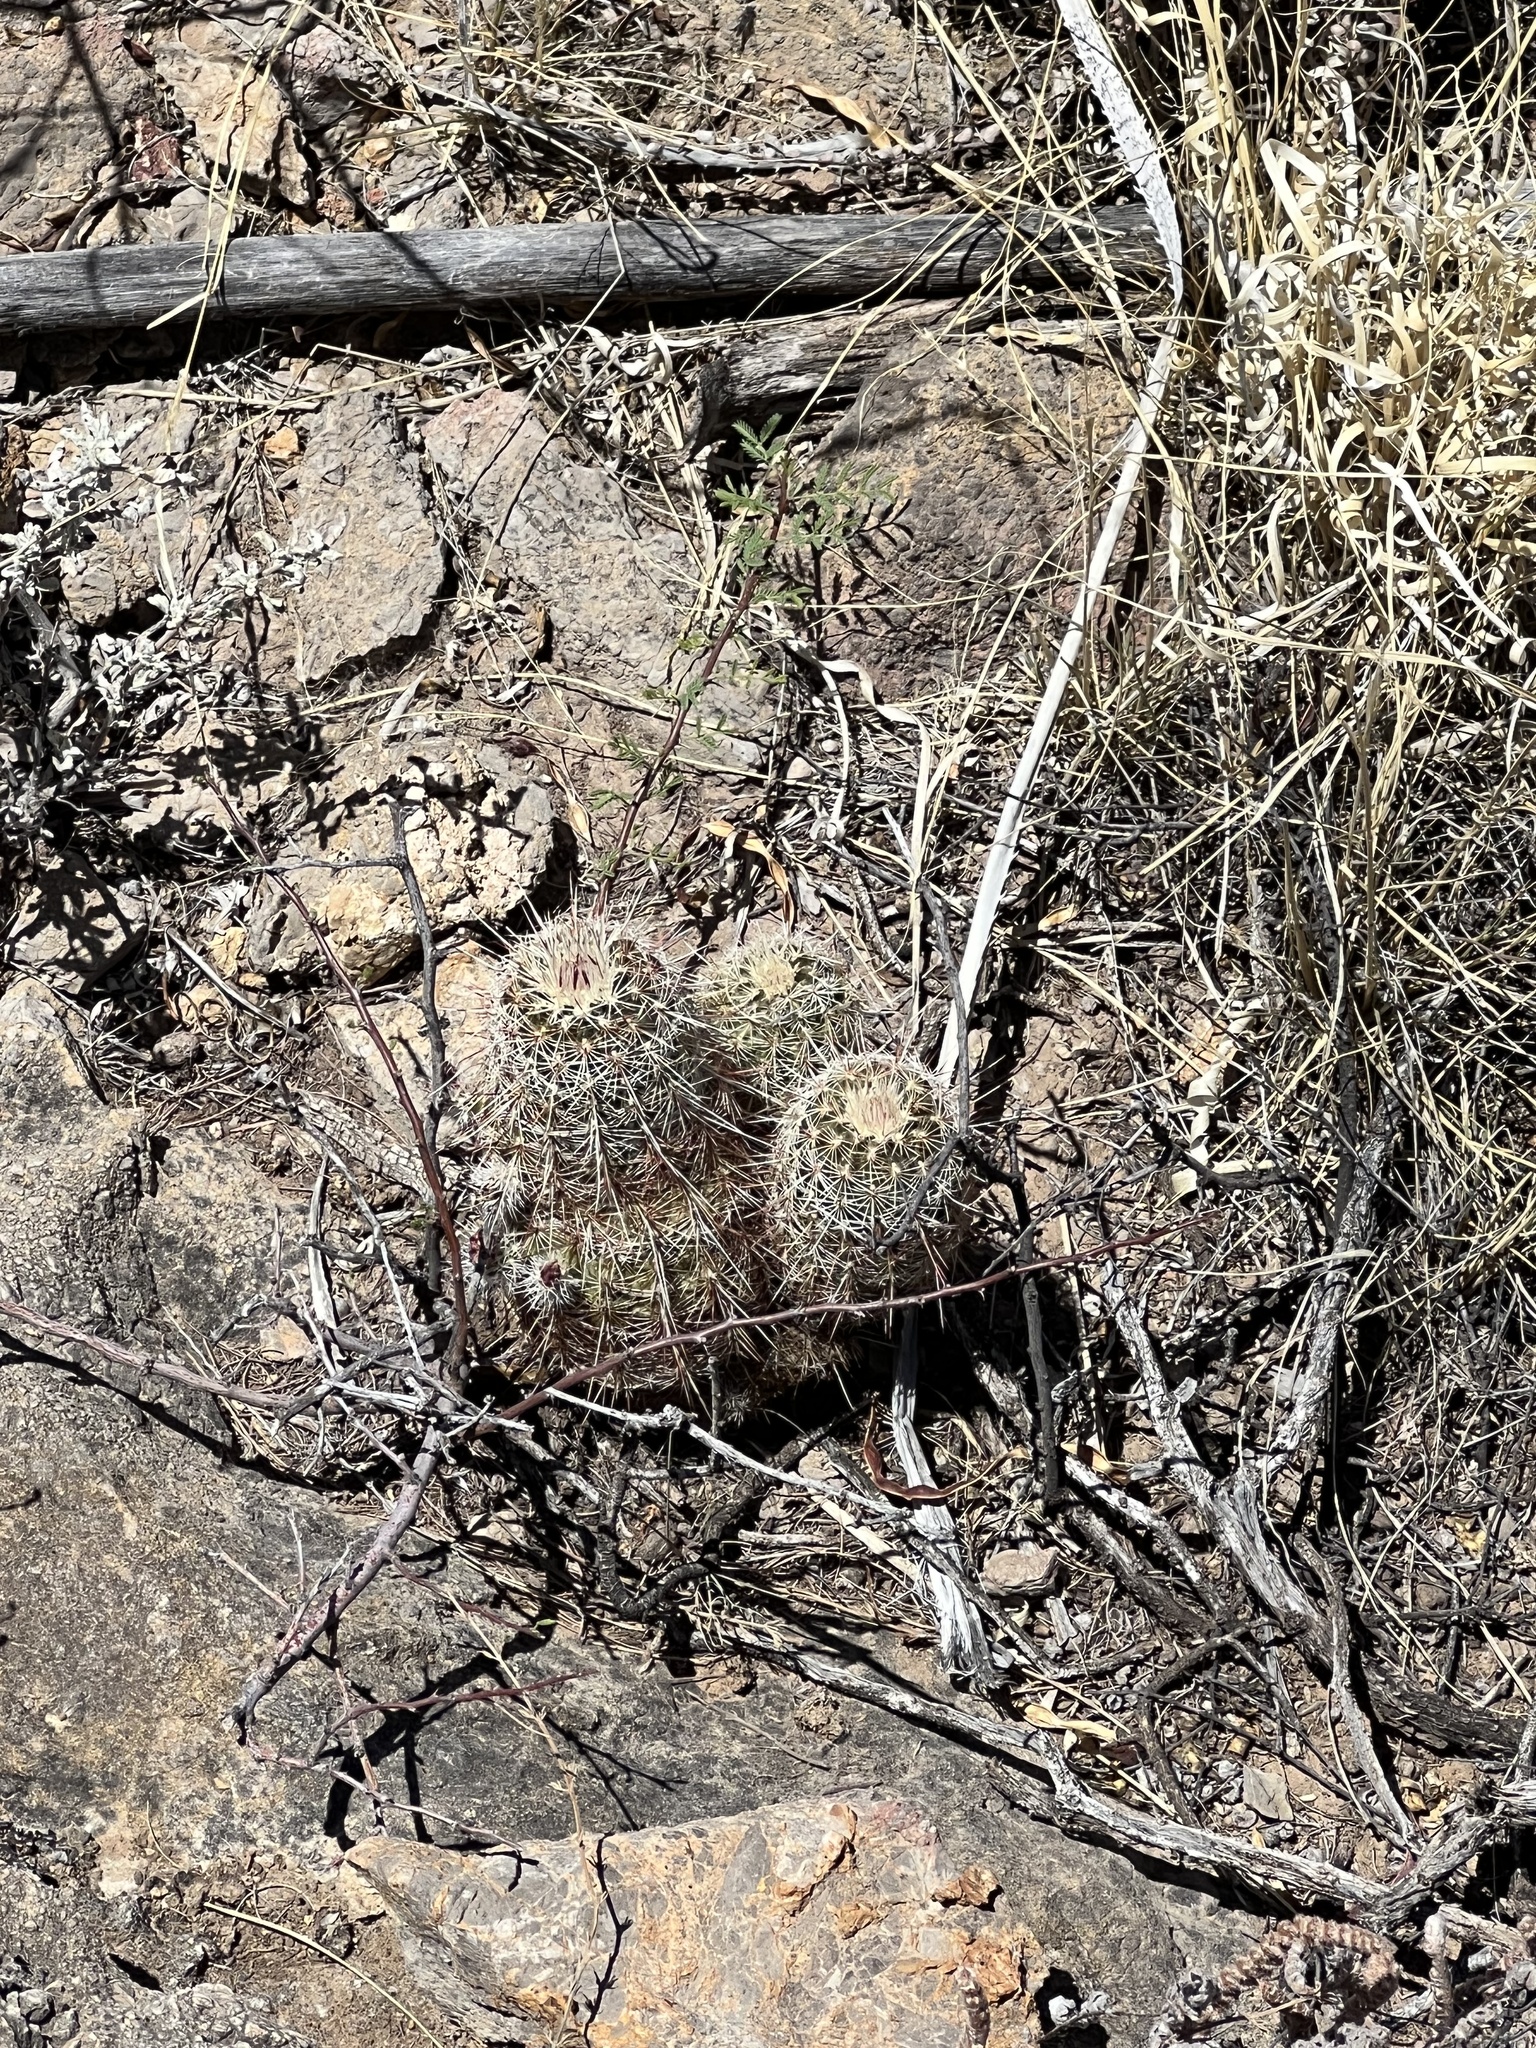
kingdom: Plantae
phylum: Tracheophyta
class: Magnoliopsida
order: Caryophyllales
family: Cactaceae
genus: Echinocereus
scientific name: Echinocereus viridiflorus
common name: Nylon hedgehog cactus
